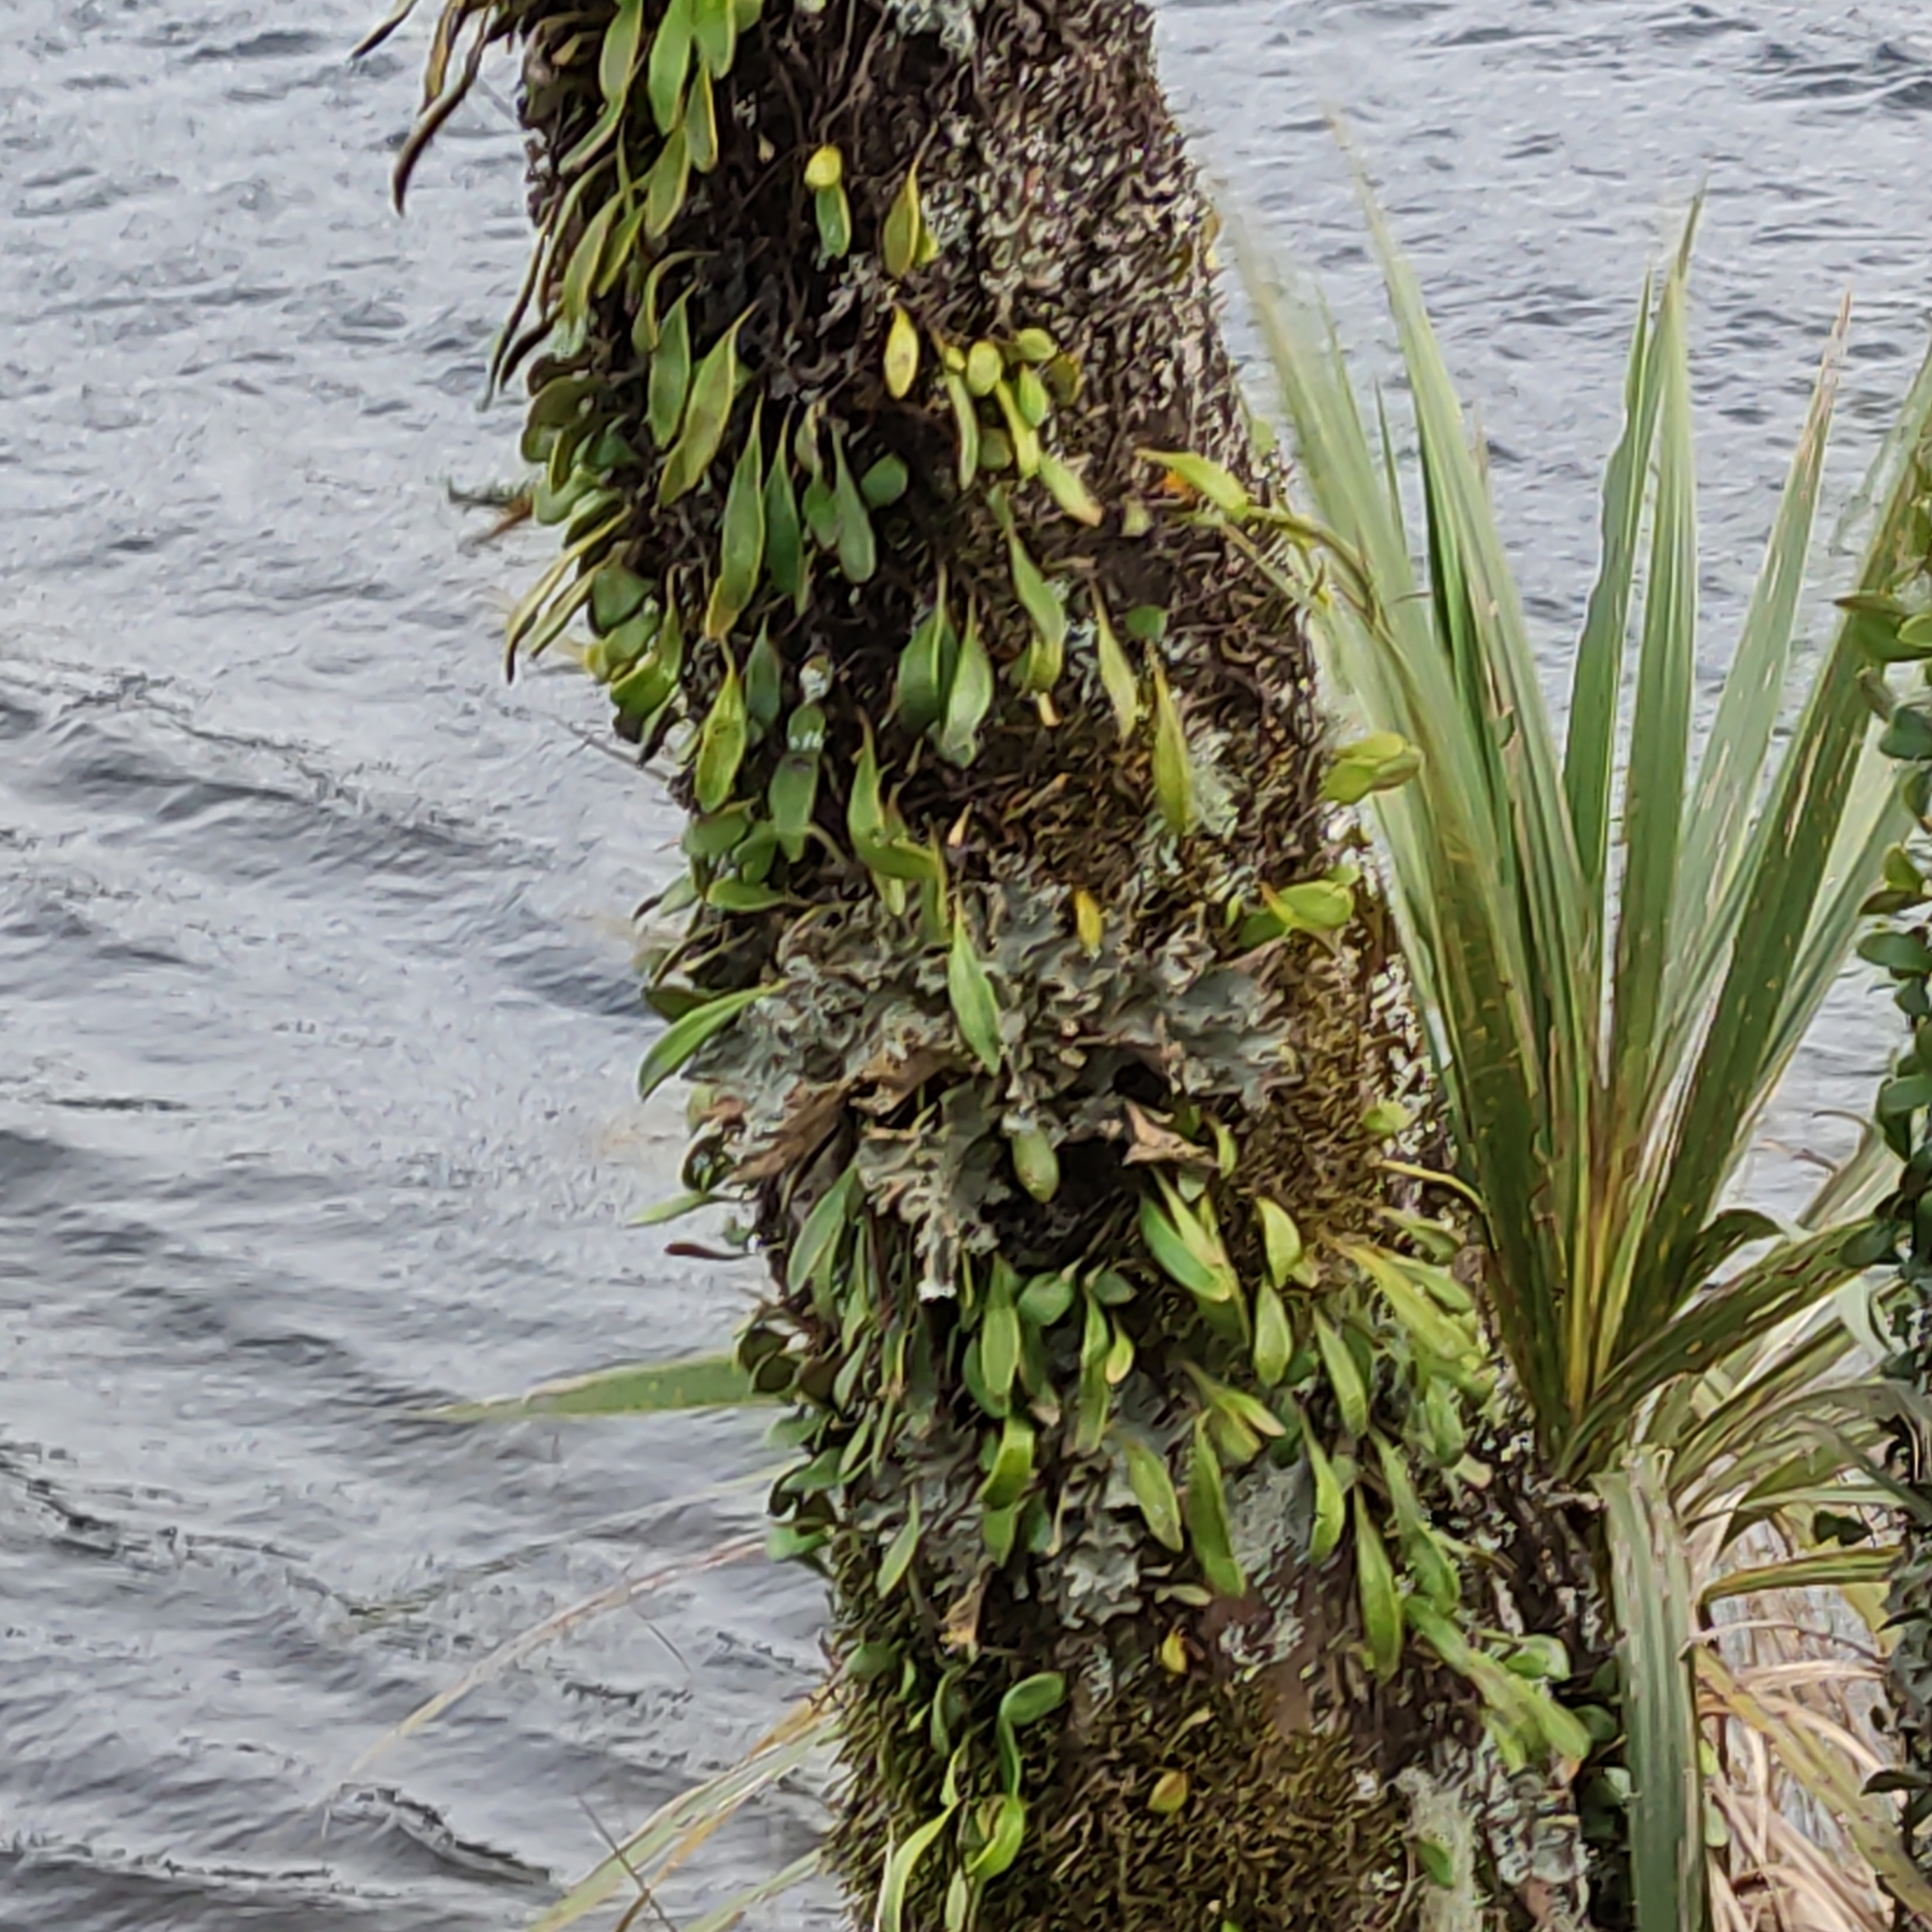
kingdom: Plantae
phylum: Tracheophyta
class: Polypodiopsida
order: Polypodiales
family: Polypodiaceae
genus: Pyrrosia
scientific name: Pyrrosia eleagnifolia
